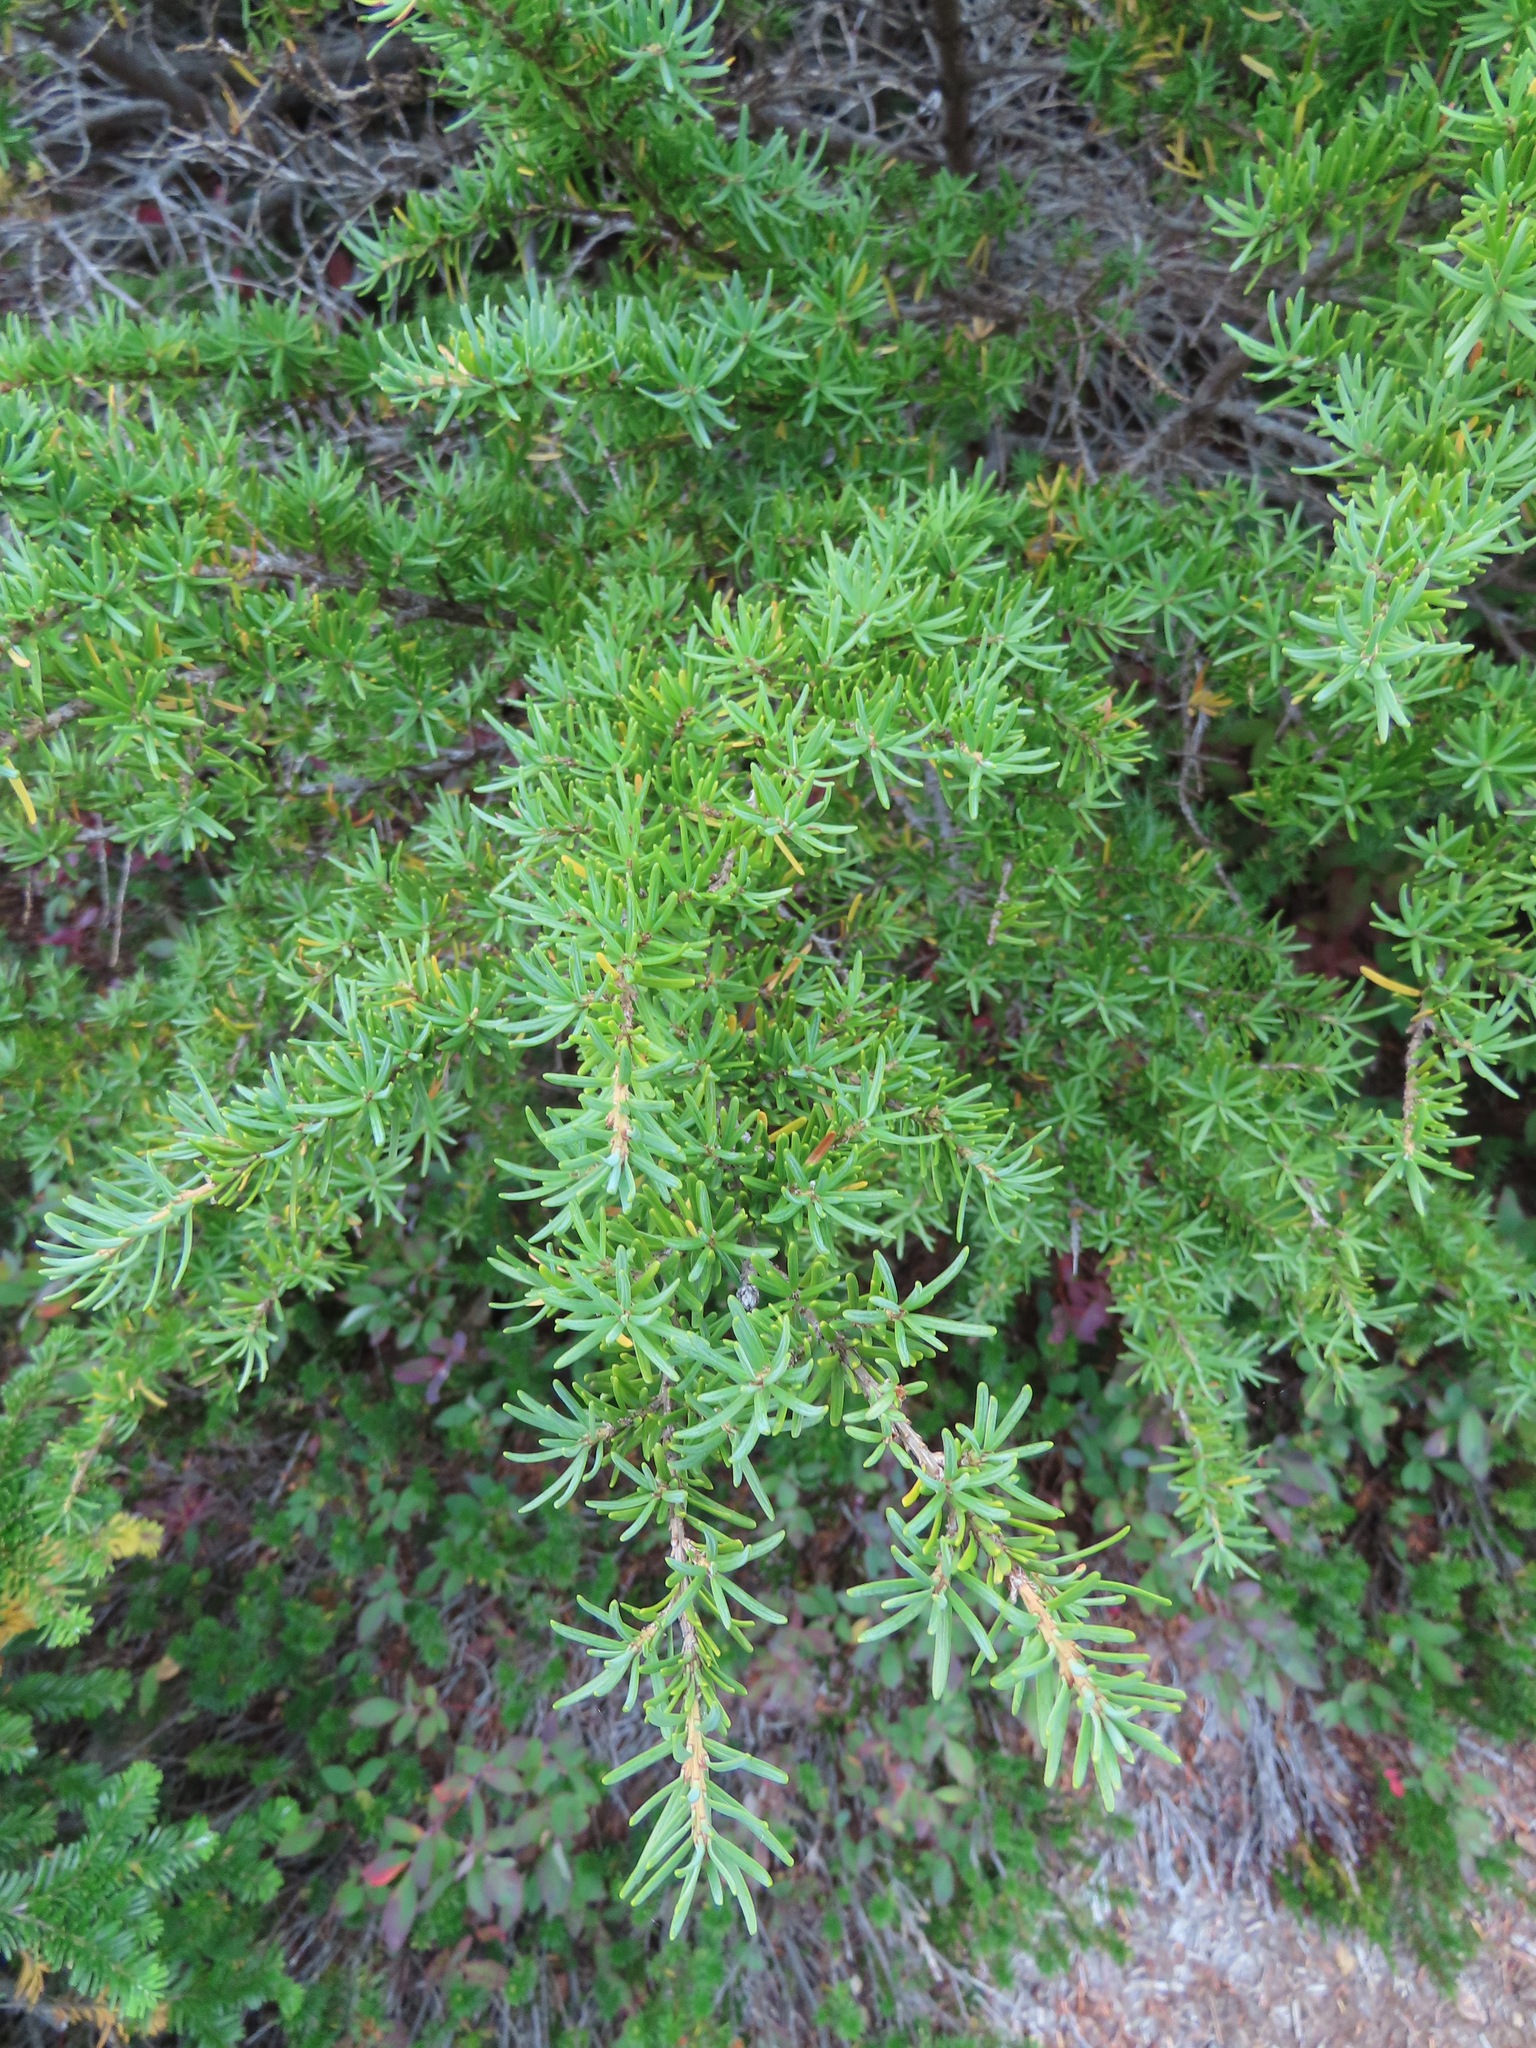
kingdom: Plantae
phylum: Tracheophyta
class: Pinopsida
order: Pinales
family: Pinaceae
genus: Tsuga
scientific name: Tsuga mertensiana
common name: Mountain hemlock
